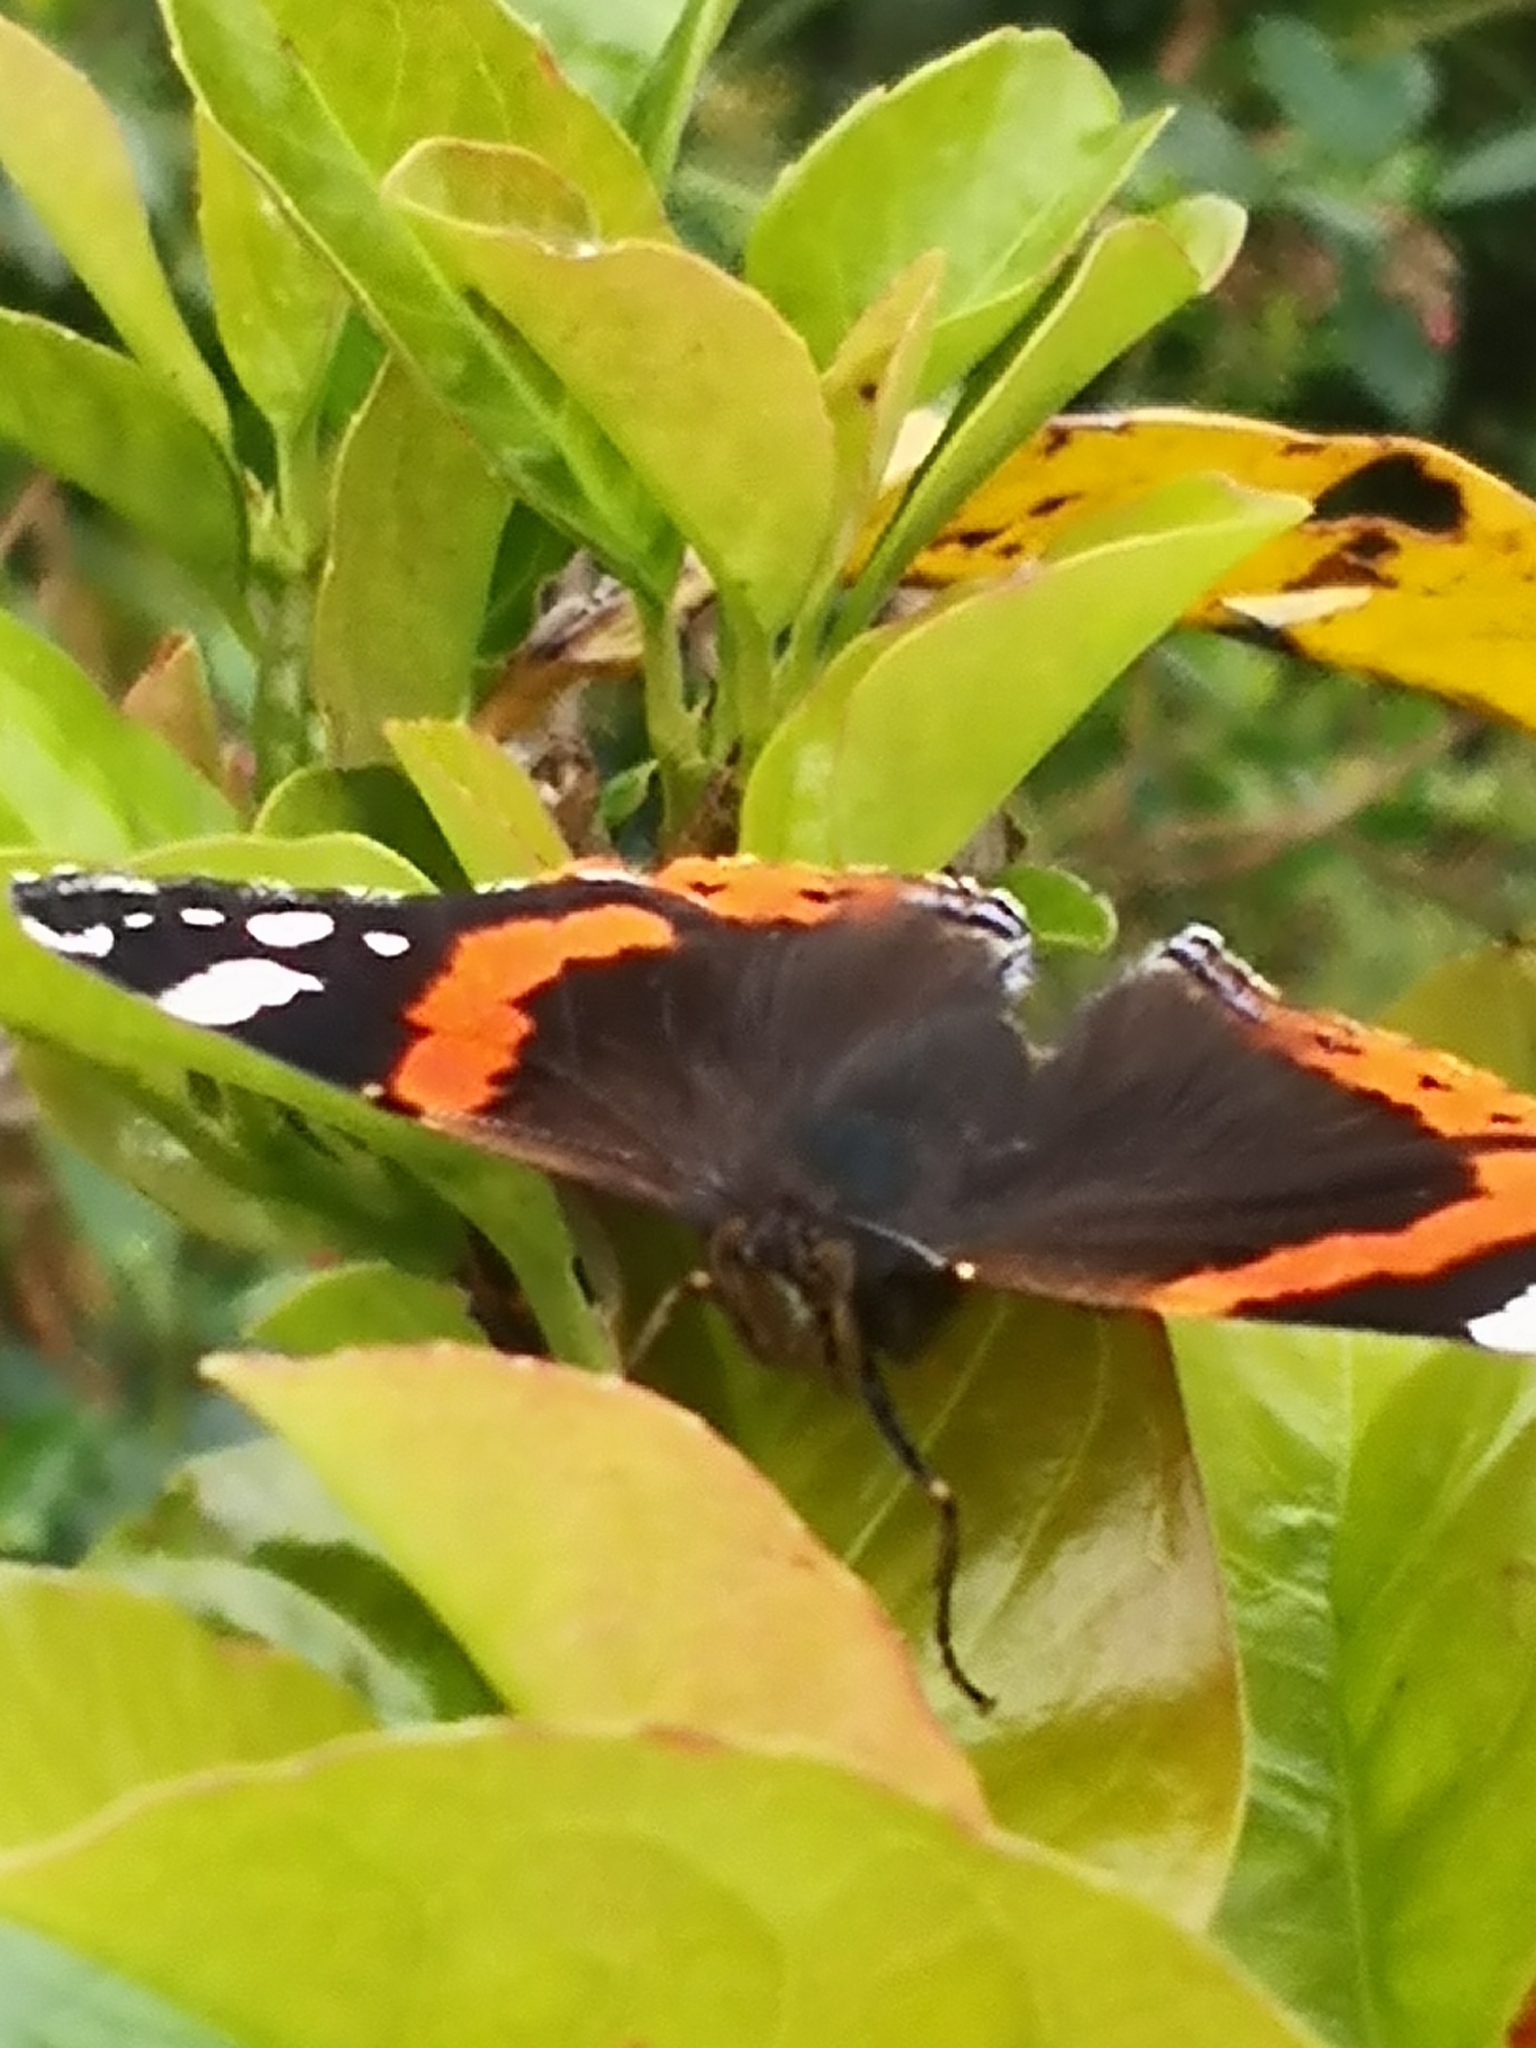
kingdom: Animalia
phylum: Arthropoda
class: Insecta
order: Lepidoptera
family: Nymphalidae
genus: Vanessa
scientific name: Vanessa atalanta
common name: Red admiral
